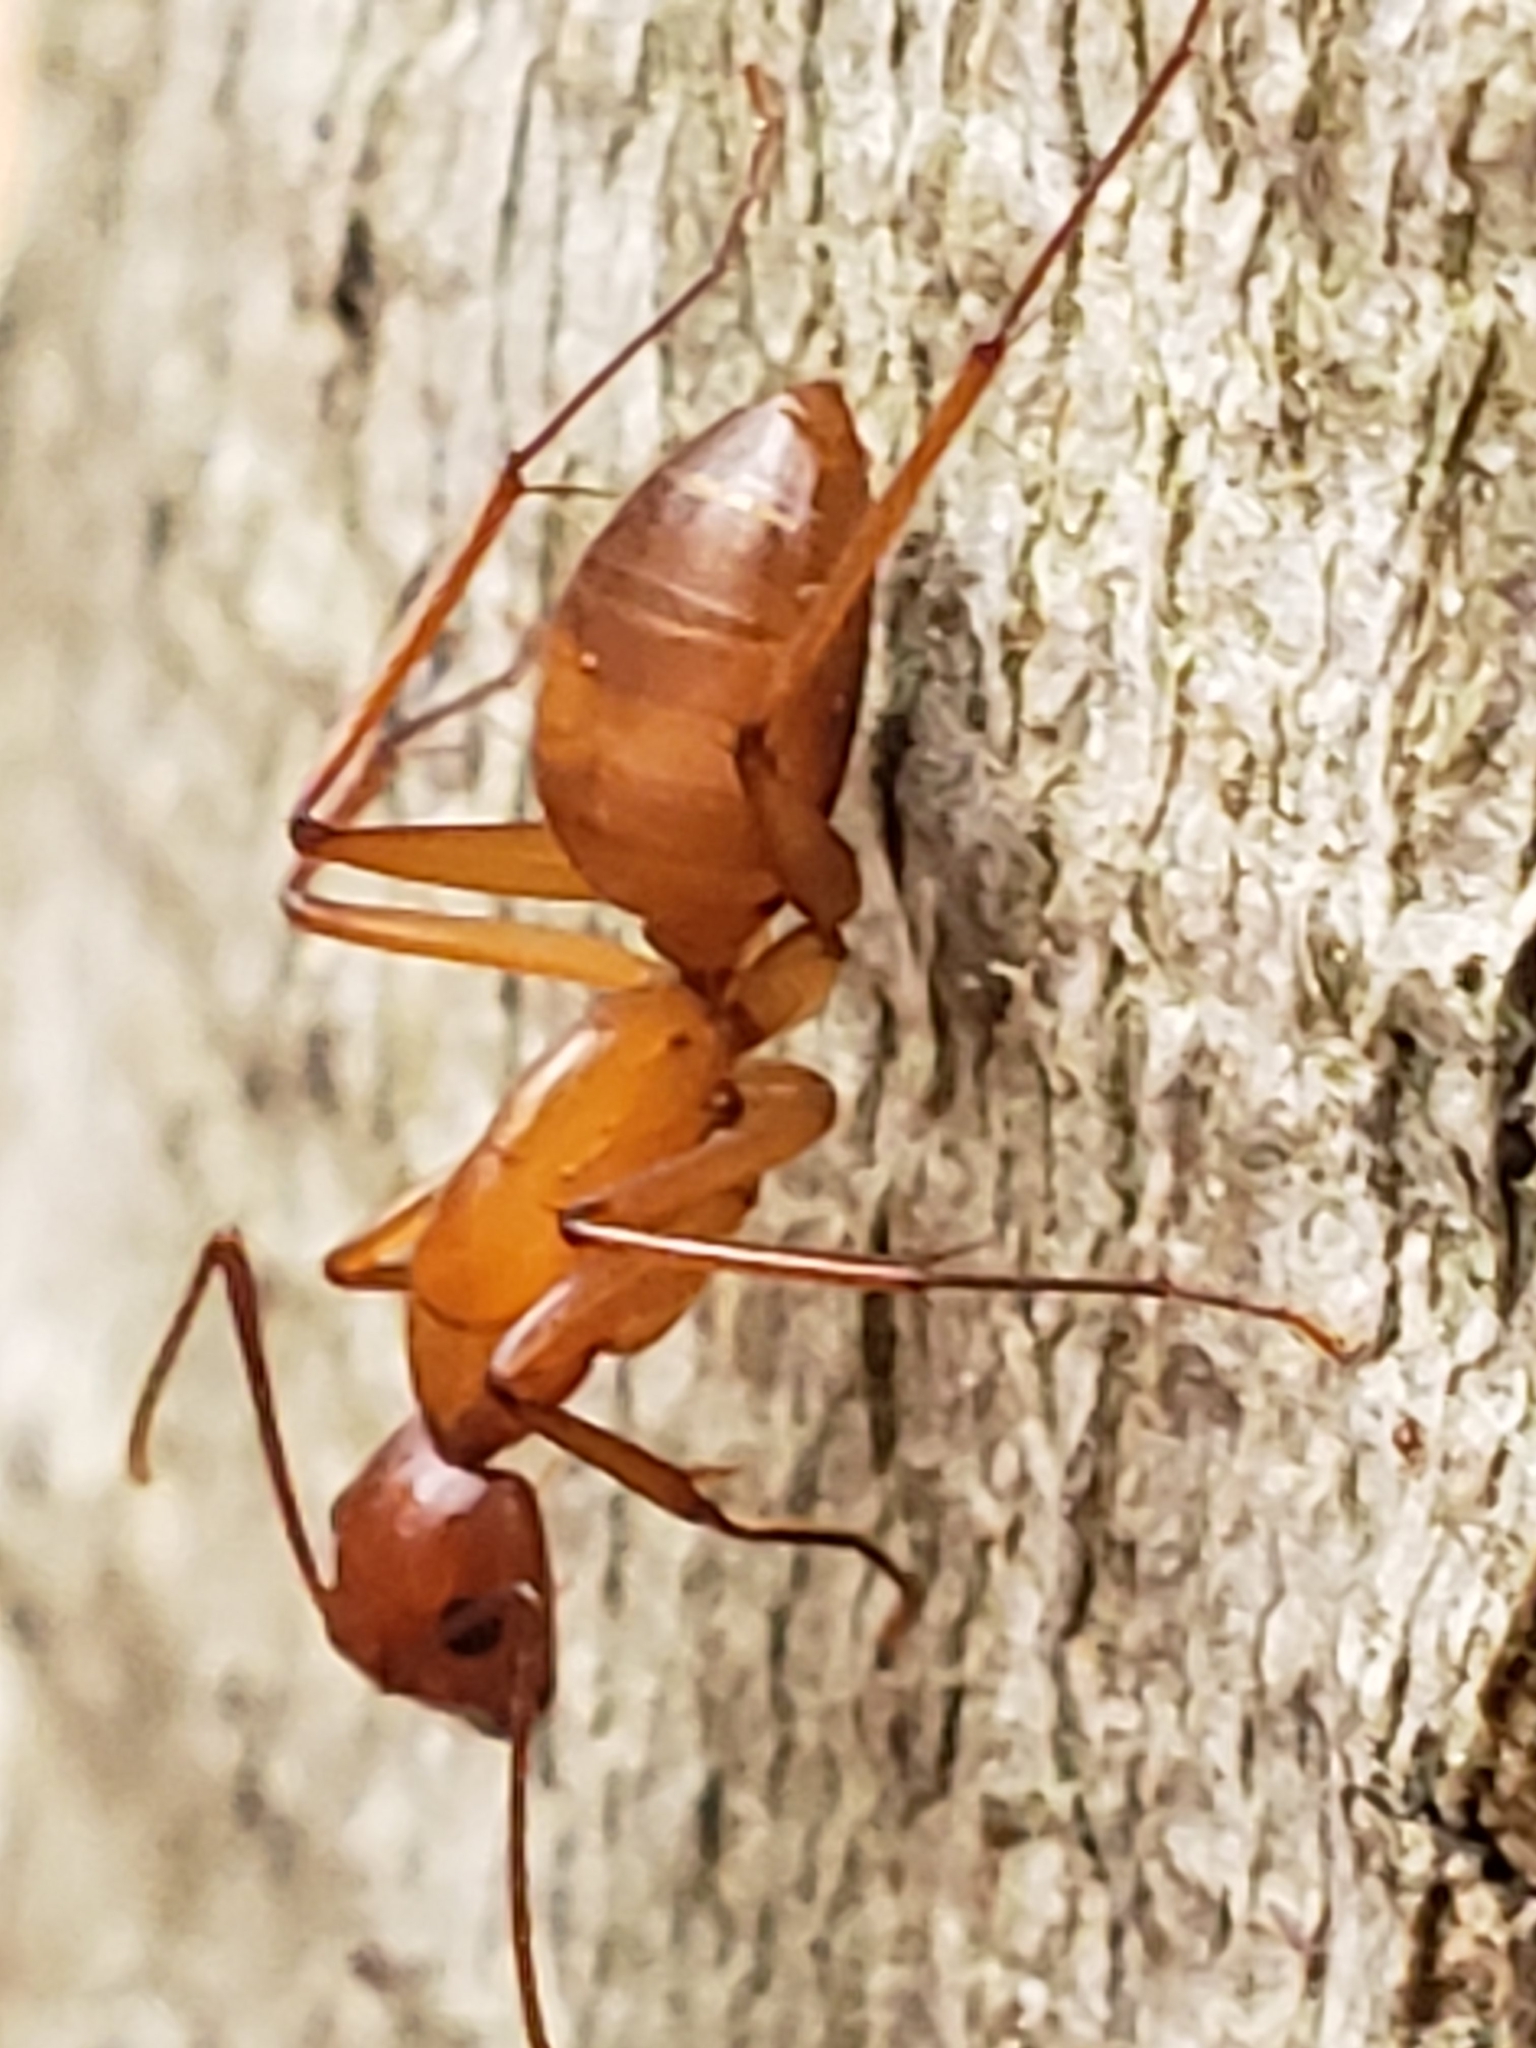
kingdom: Animalia
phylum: Arthropoda
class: Insecta
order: Hymenoptera
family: Formicidae
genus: Camponotus
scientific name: Camponotus castaneus
